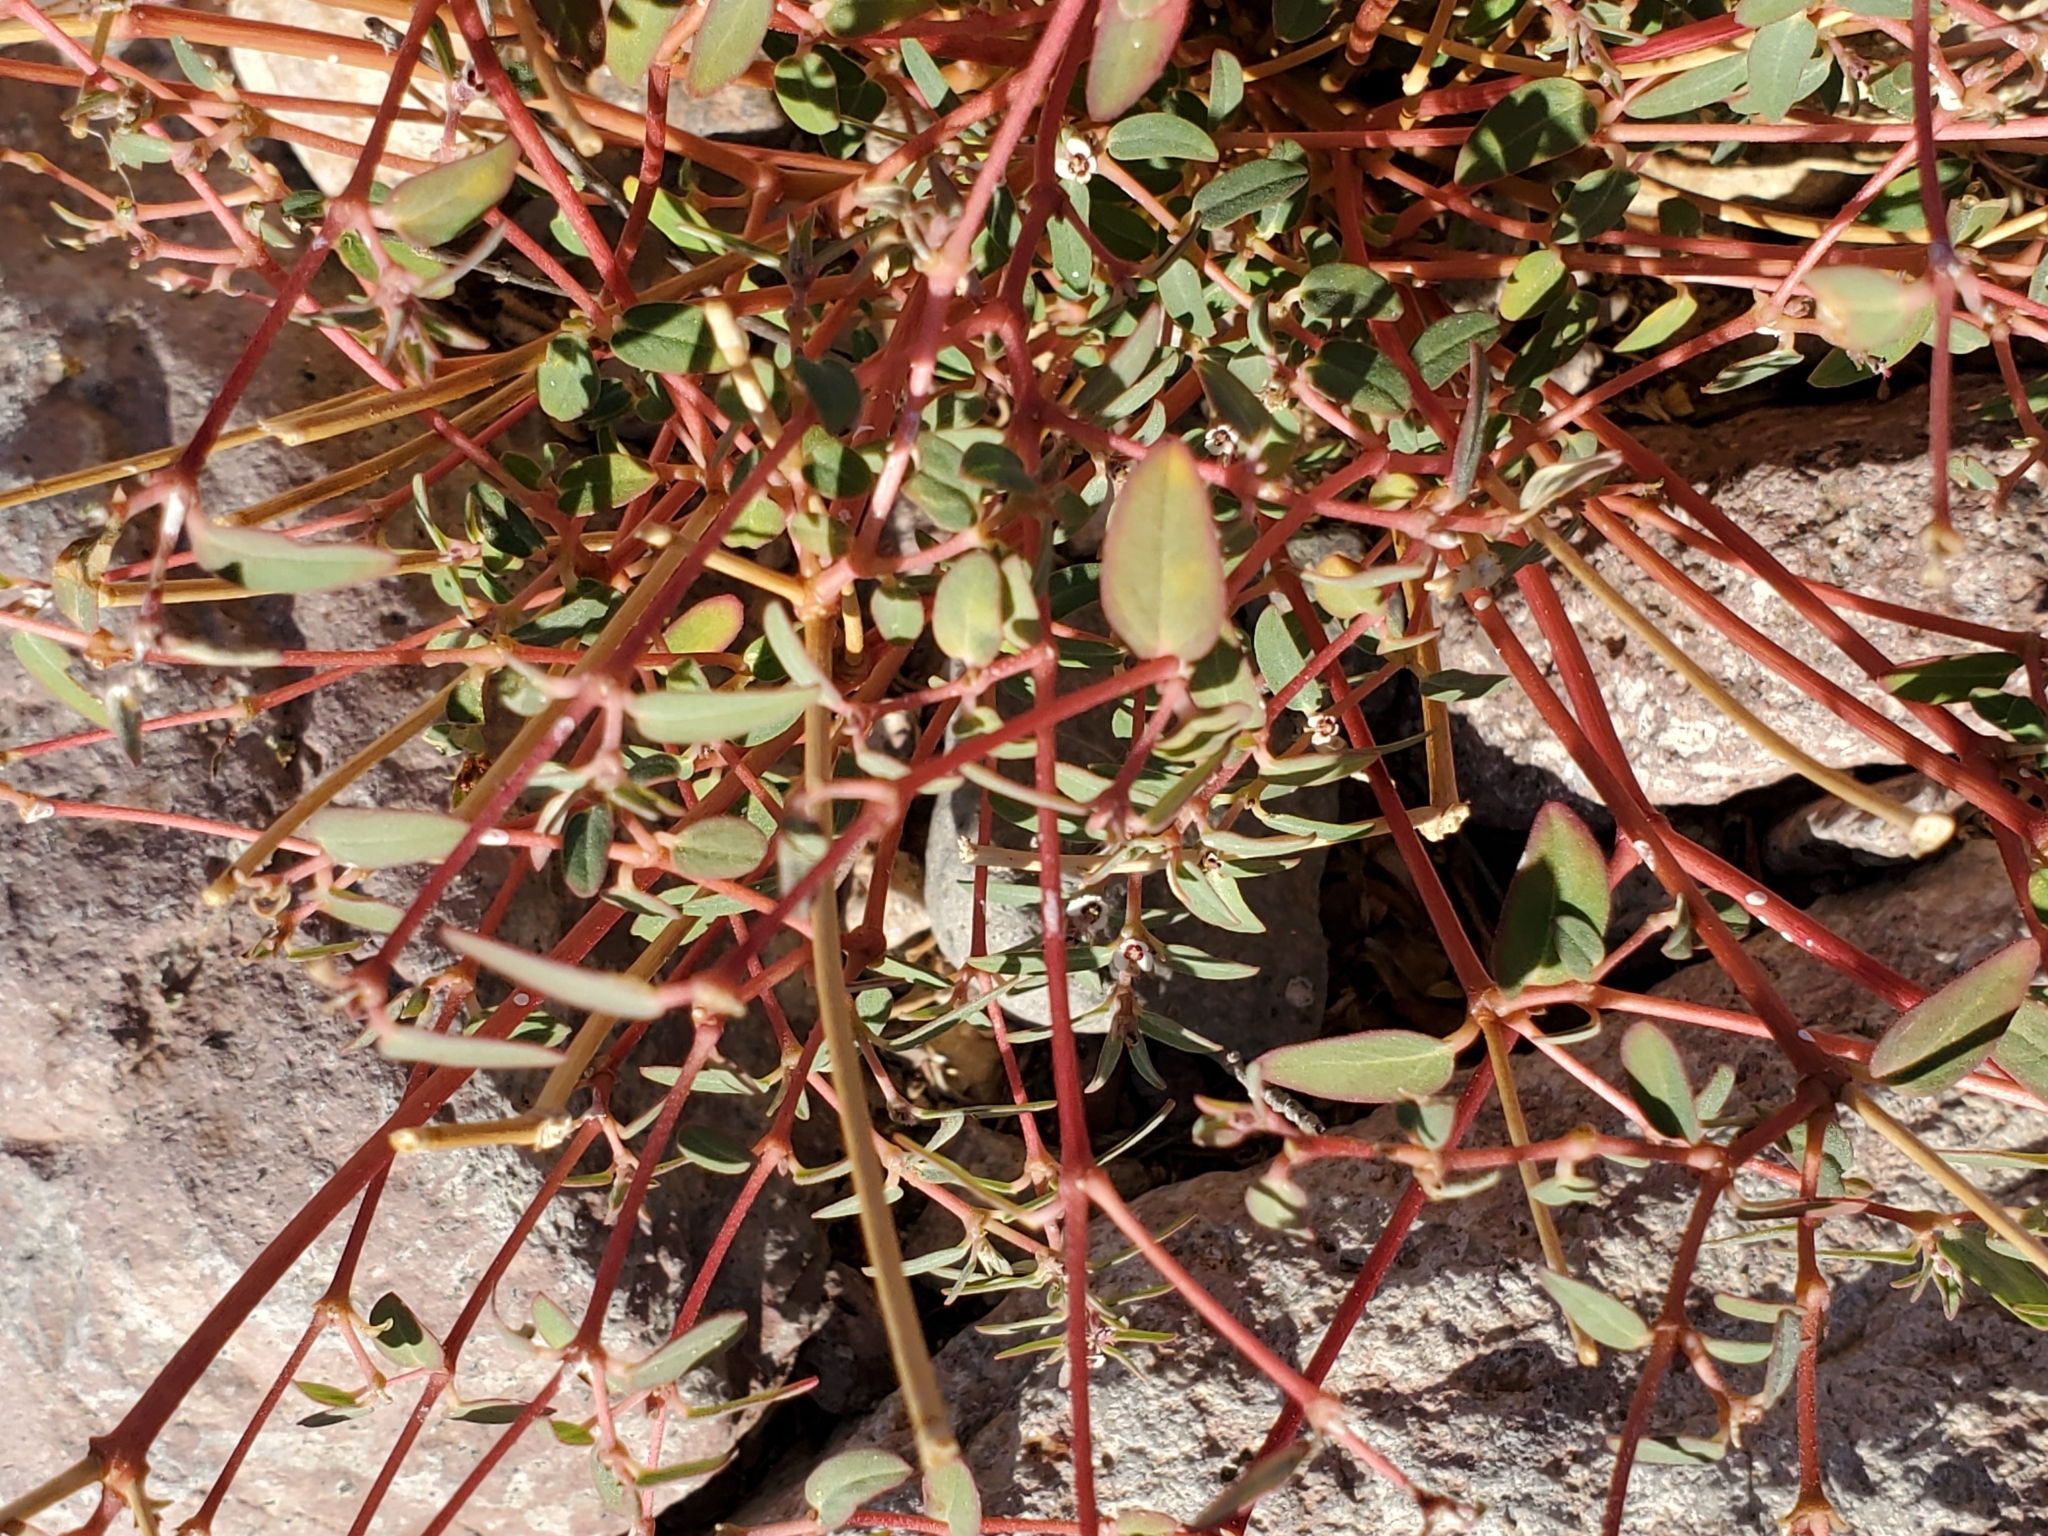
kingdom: Plantae
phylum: Tracheophyta
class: Magnoliopsida
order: Malpighiales
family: Euphorbiaceae
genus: Euphorbia
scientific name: Euphorbia pediculifera
